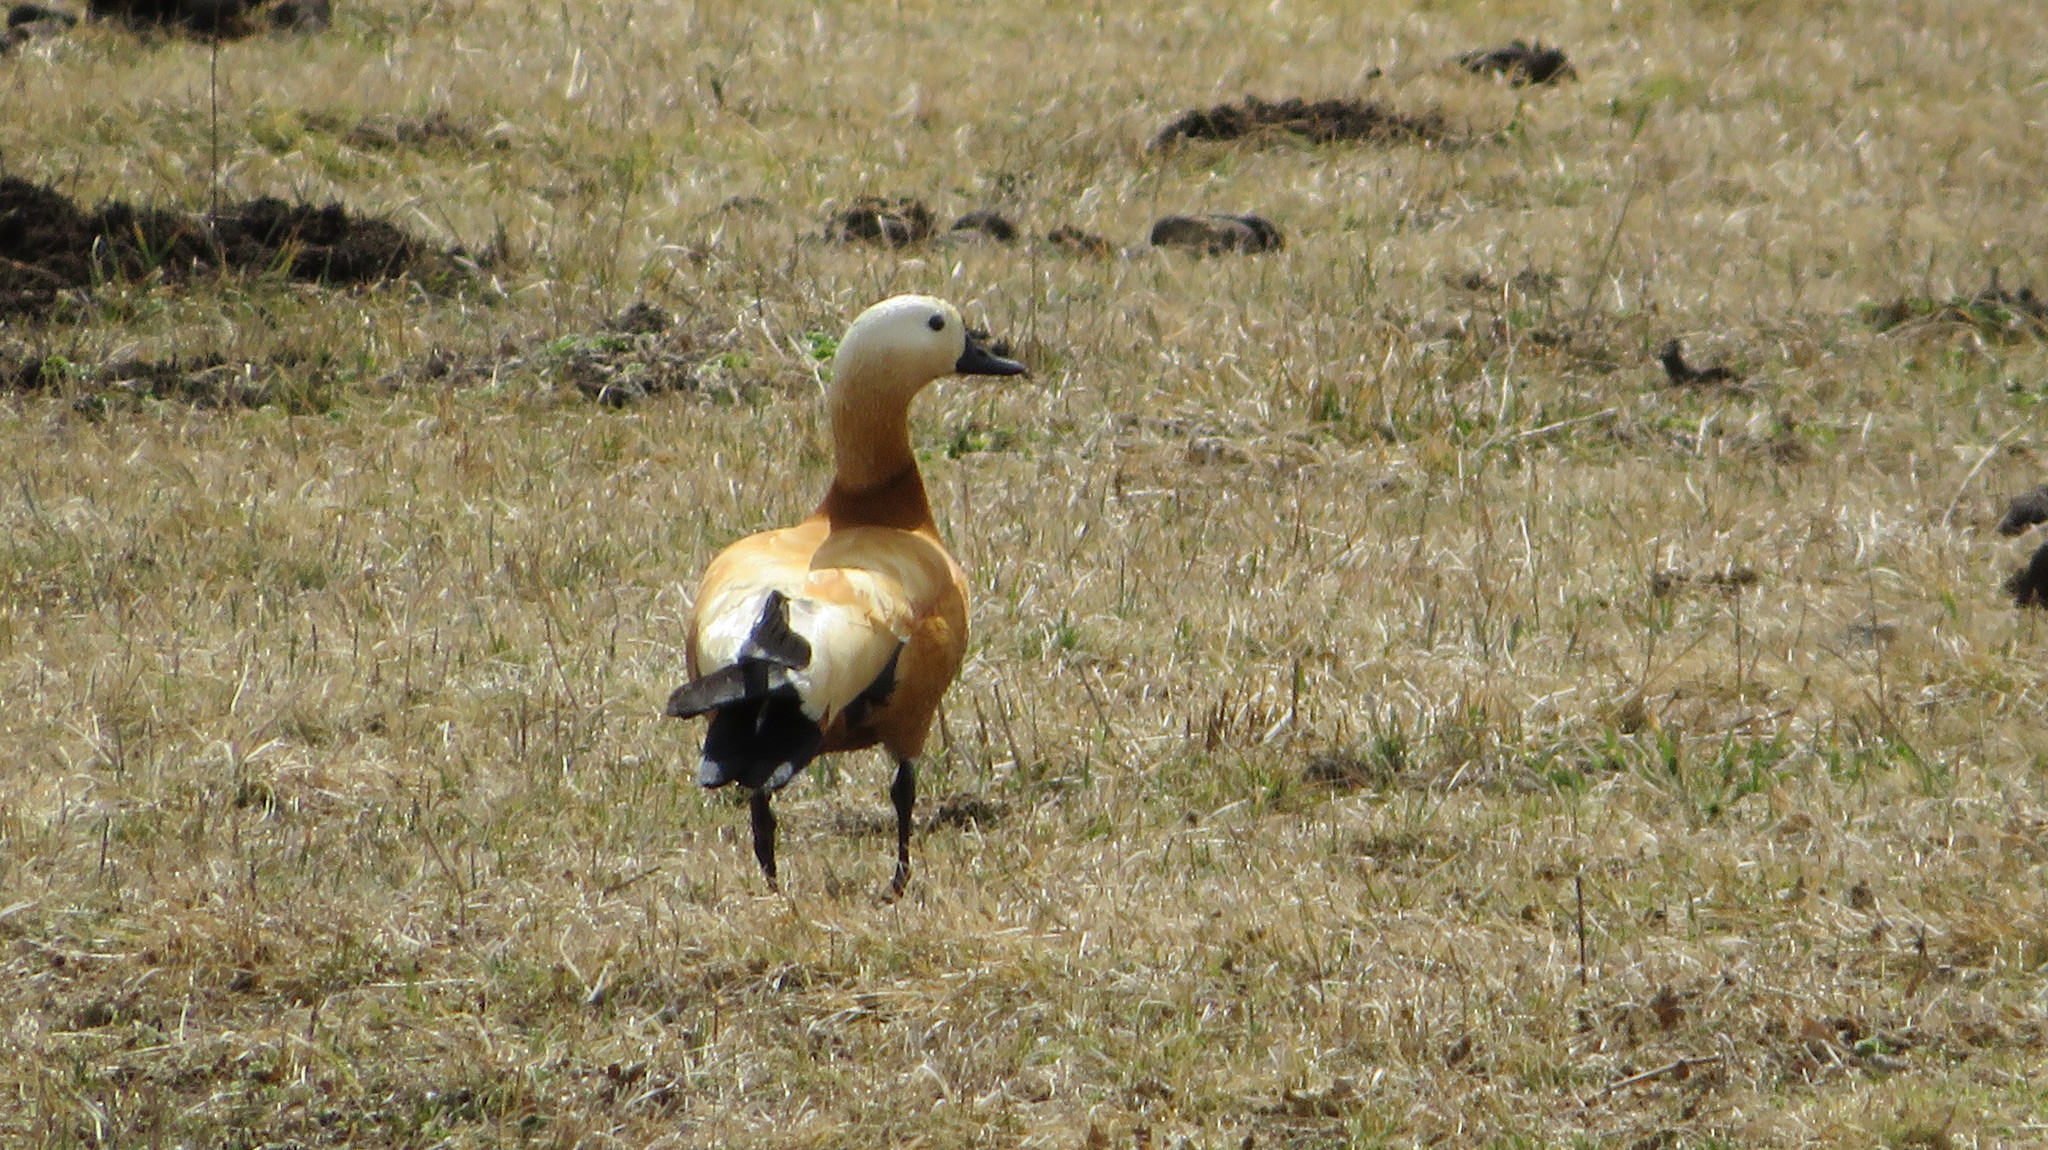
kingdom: Animalia
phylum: Chordata
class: Aves
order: Anseriformes
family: Anatidae
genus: Tadorna
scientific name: Tadorna ferruginea
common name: Ruddy shelduck
